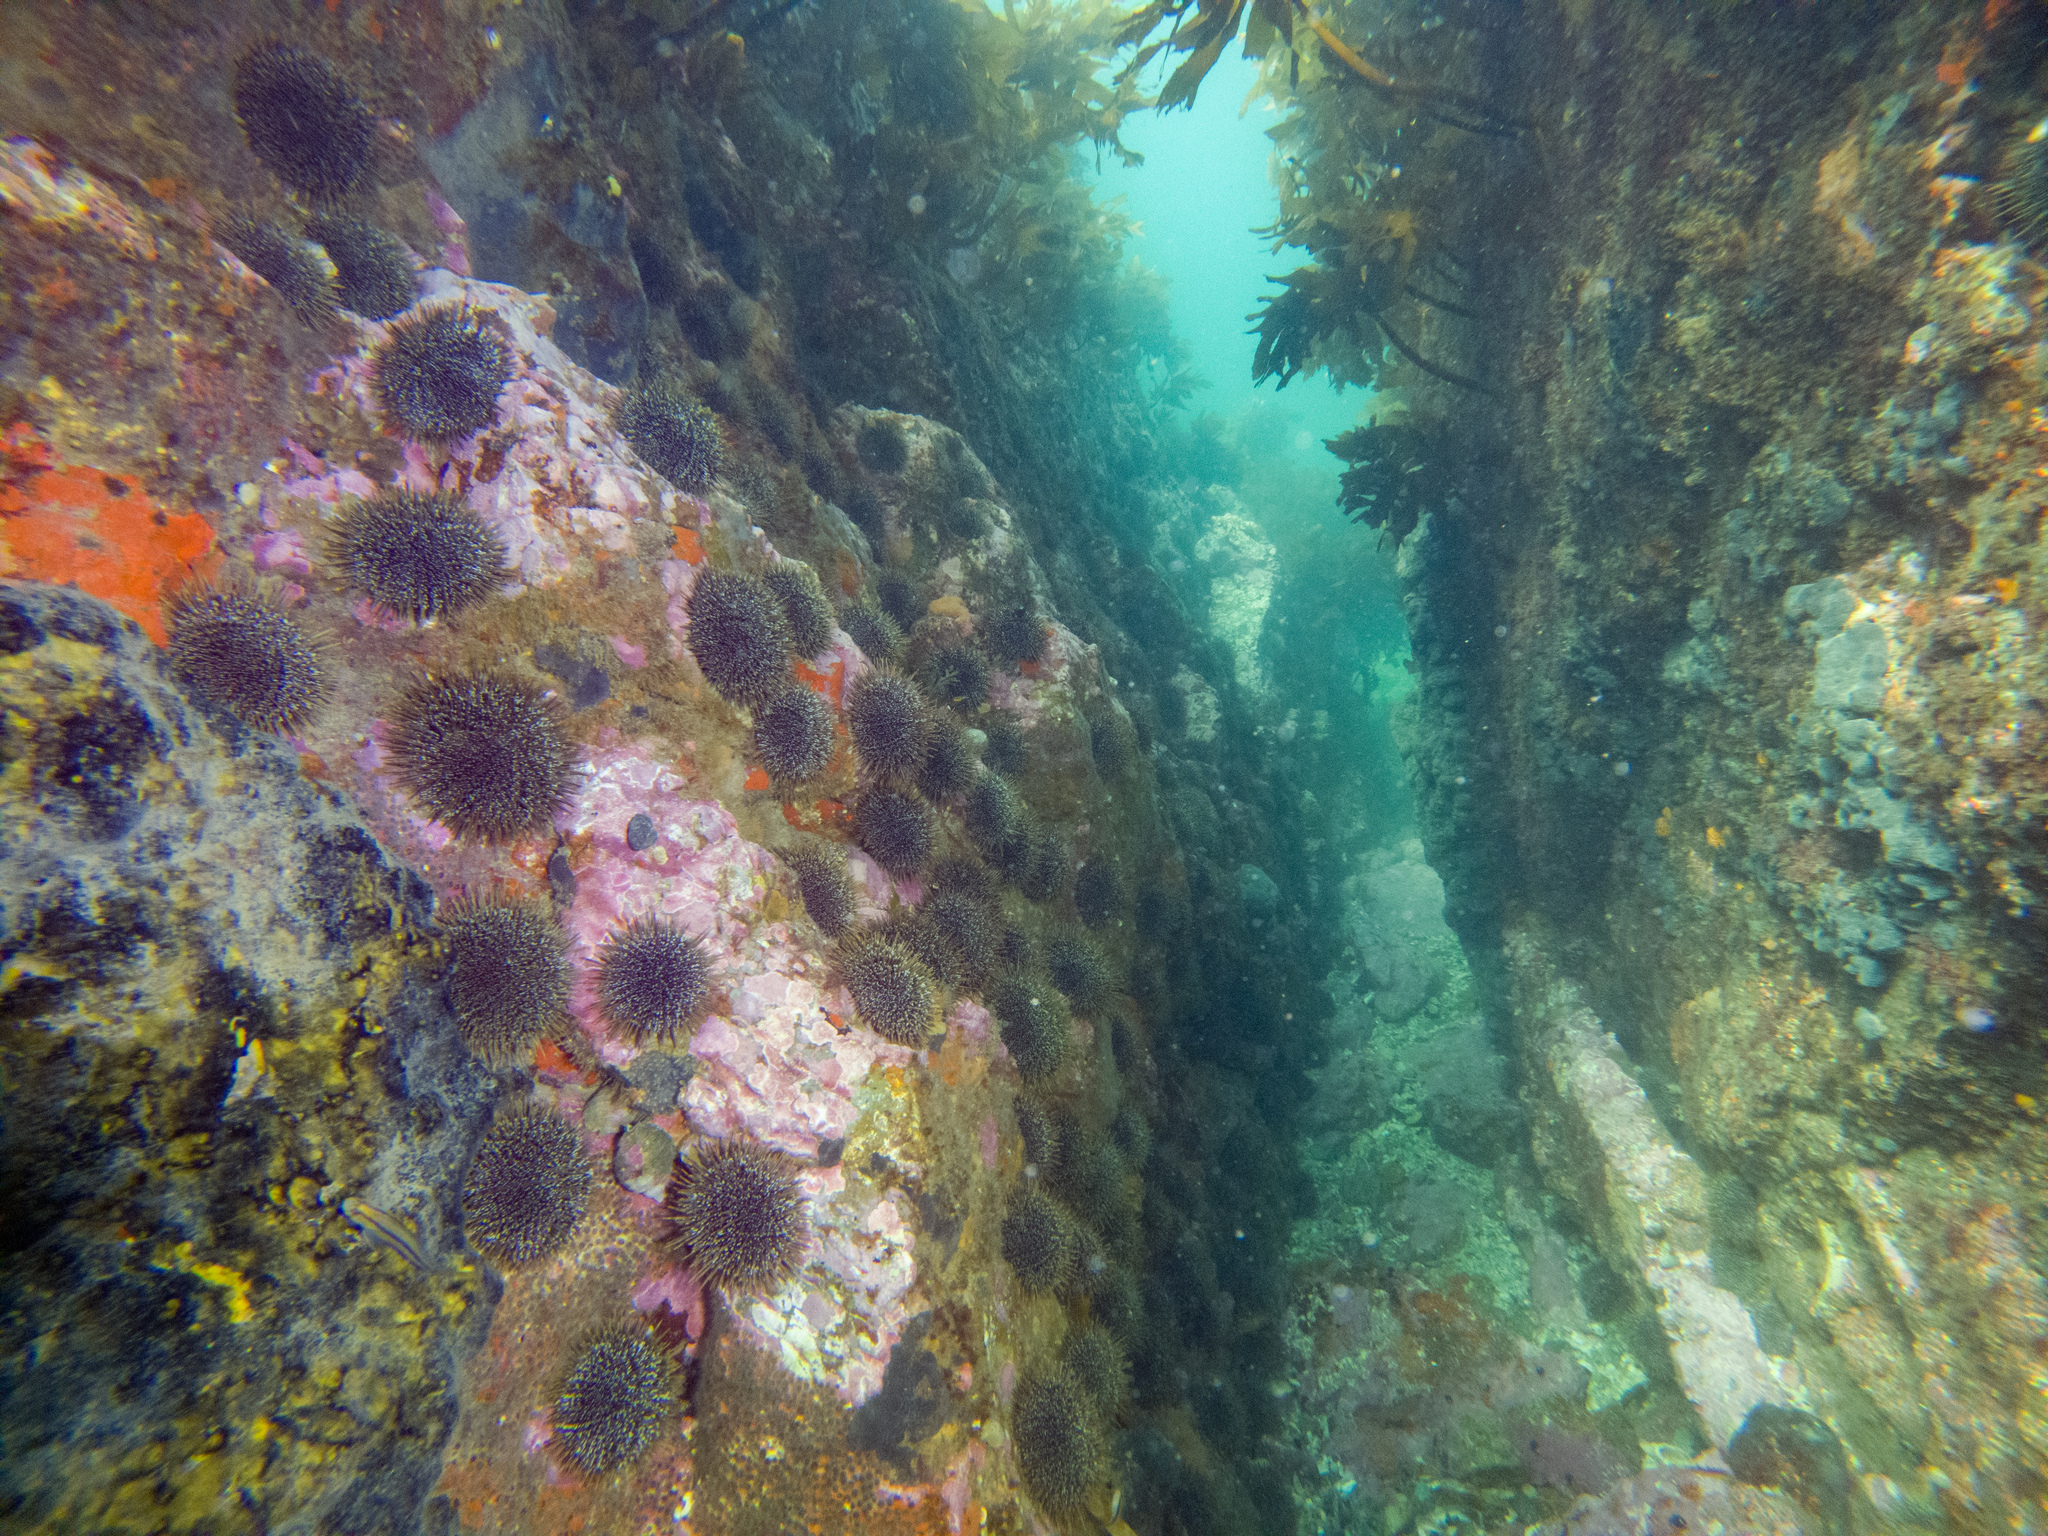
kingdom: Animalia
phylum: Echinodermata
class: Echinoidea
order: Camarodonta
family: Echinometridae
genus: Evechinus
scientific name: Evechinus chloroticus
